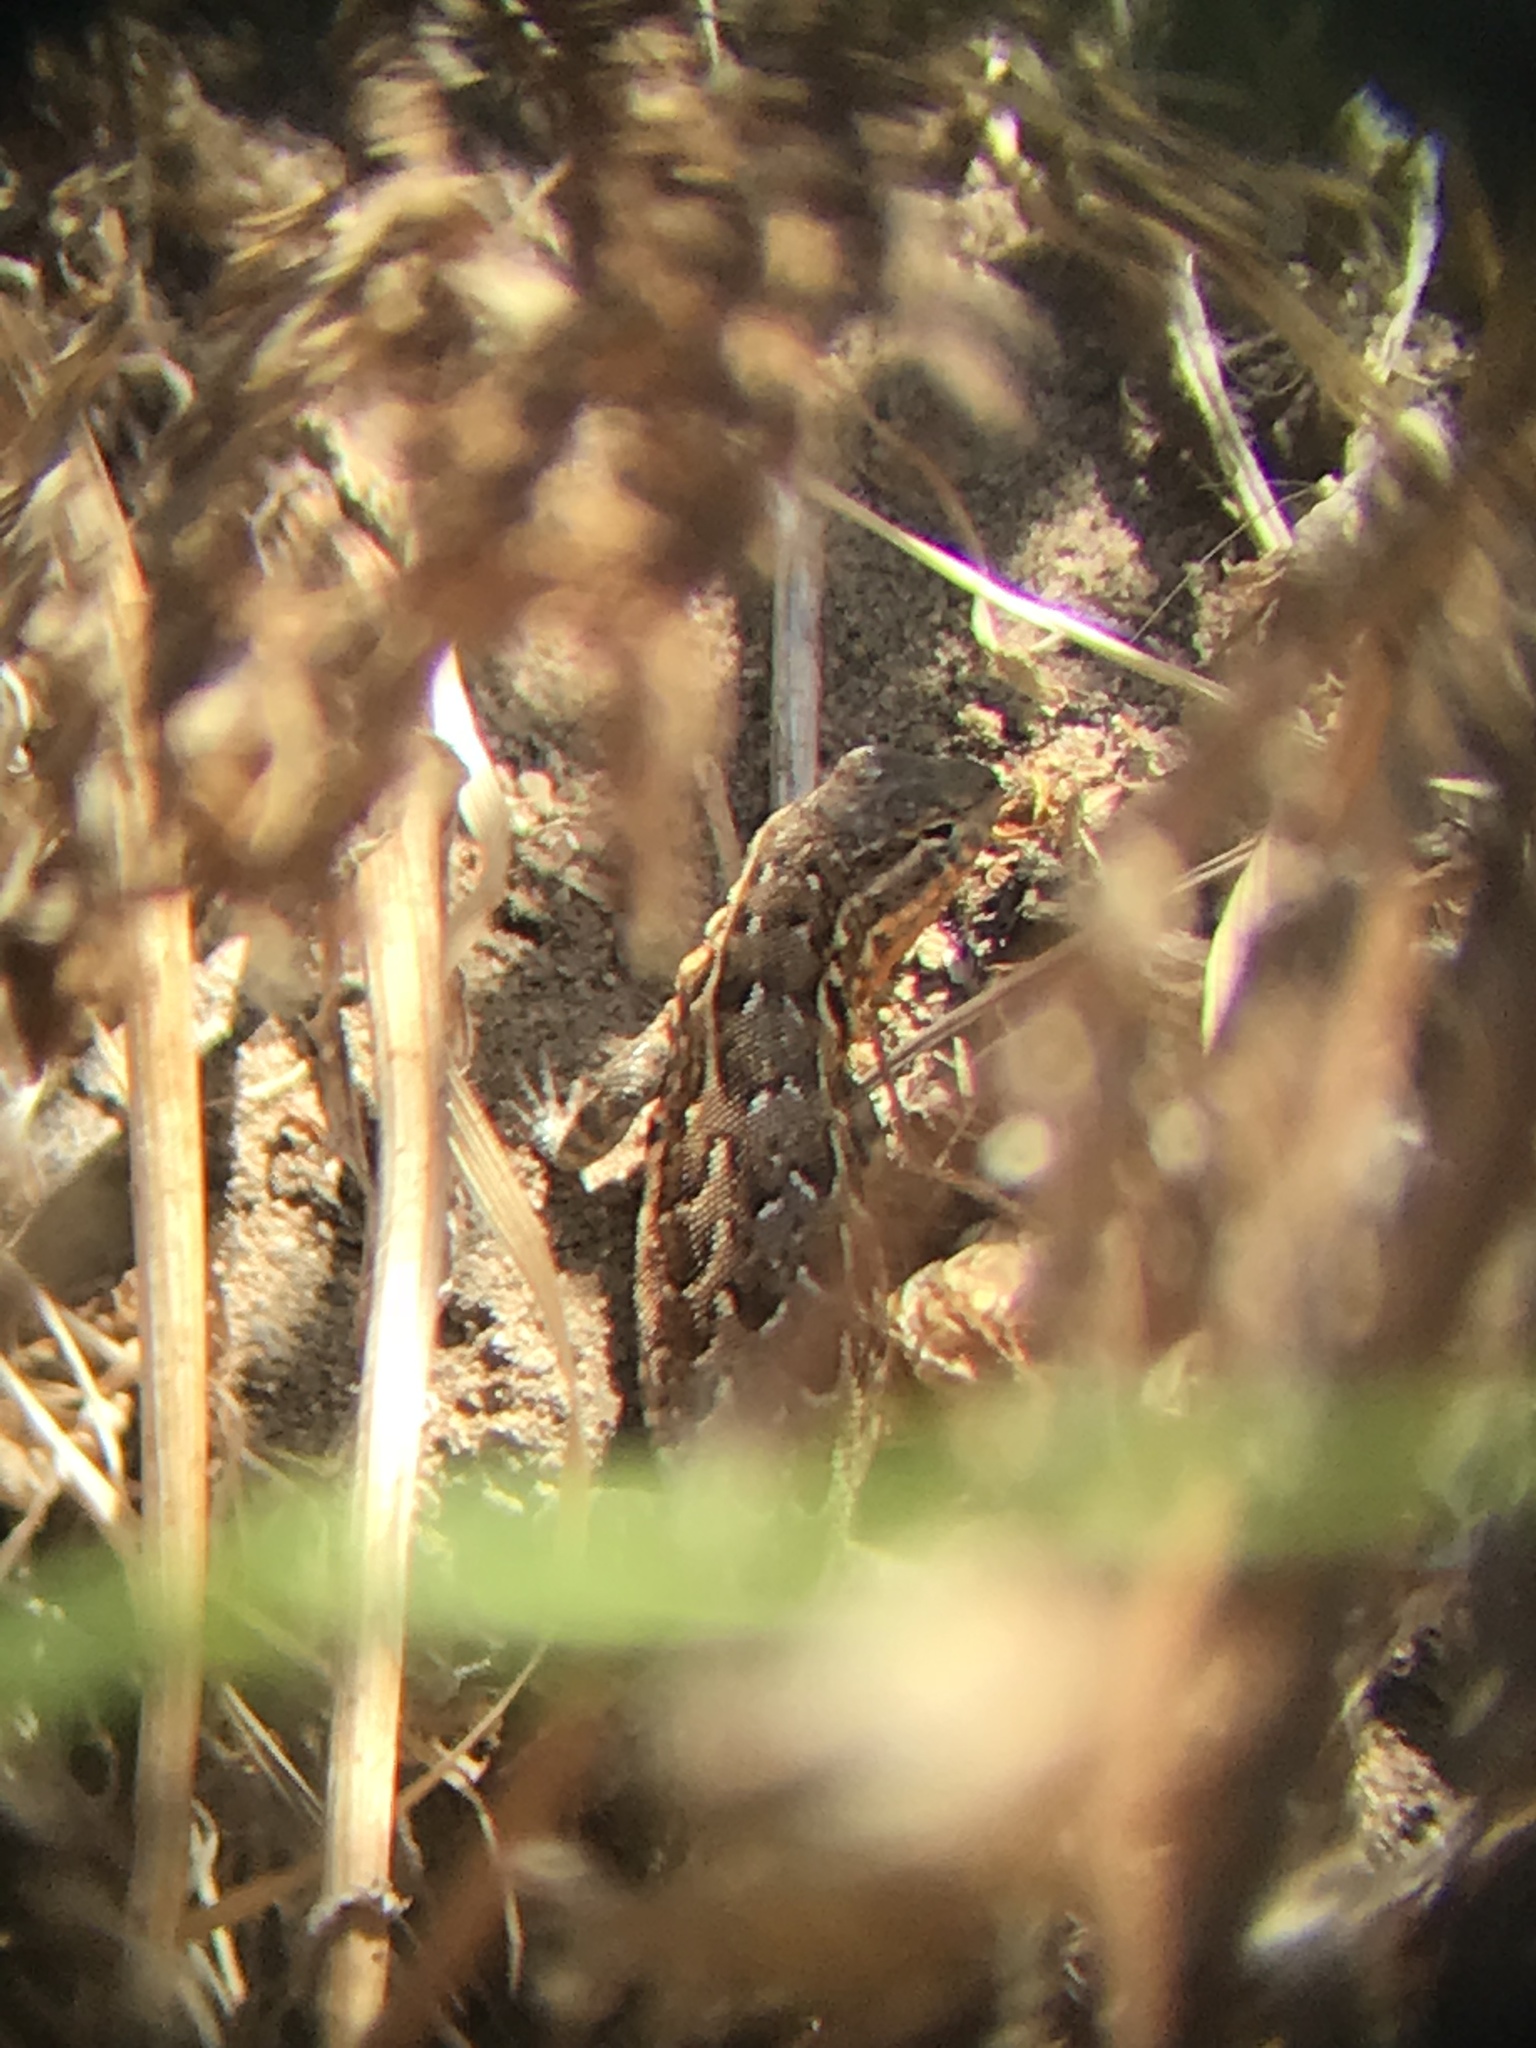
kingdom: Animalia
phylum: Chordata
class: Squamata
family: Phrynosomatidae
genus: Uta
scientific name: Uta stansburiana
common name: Side-blotched lizard
